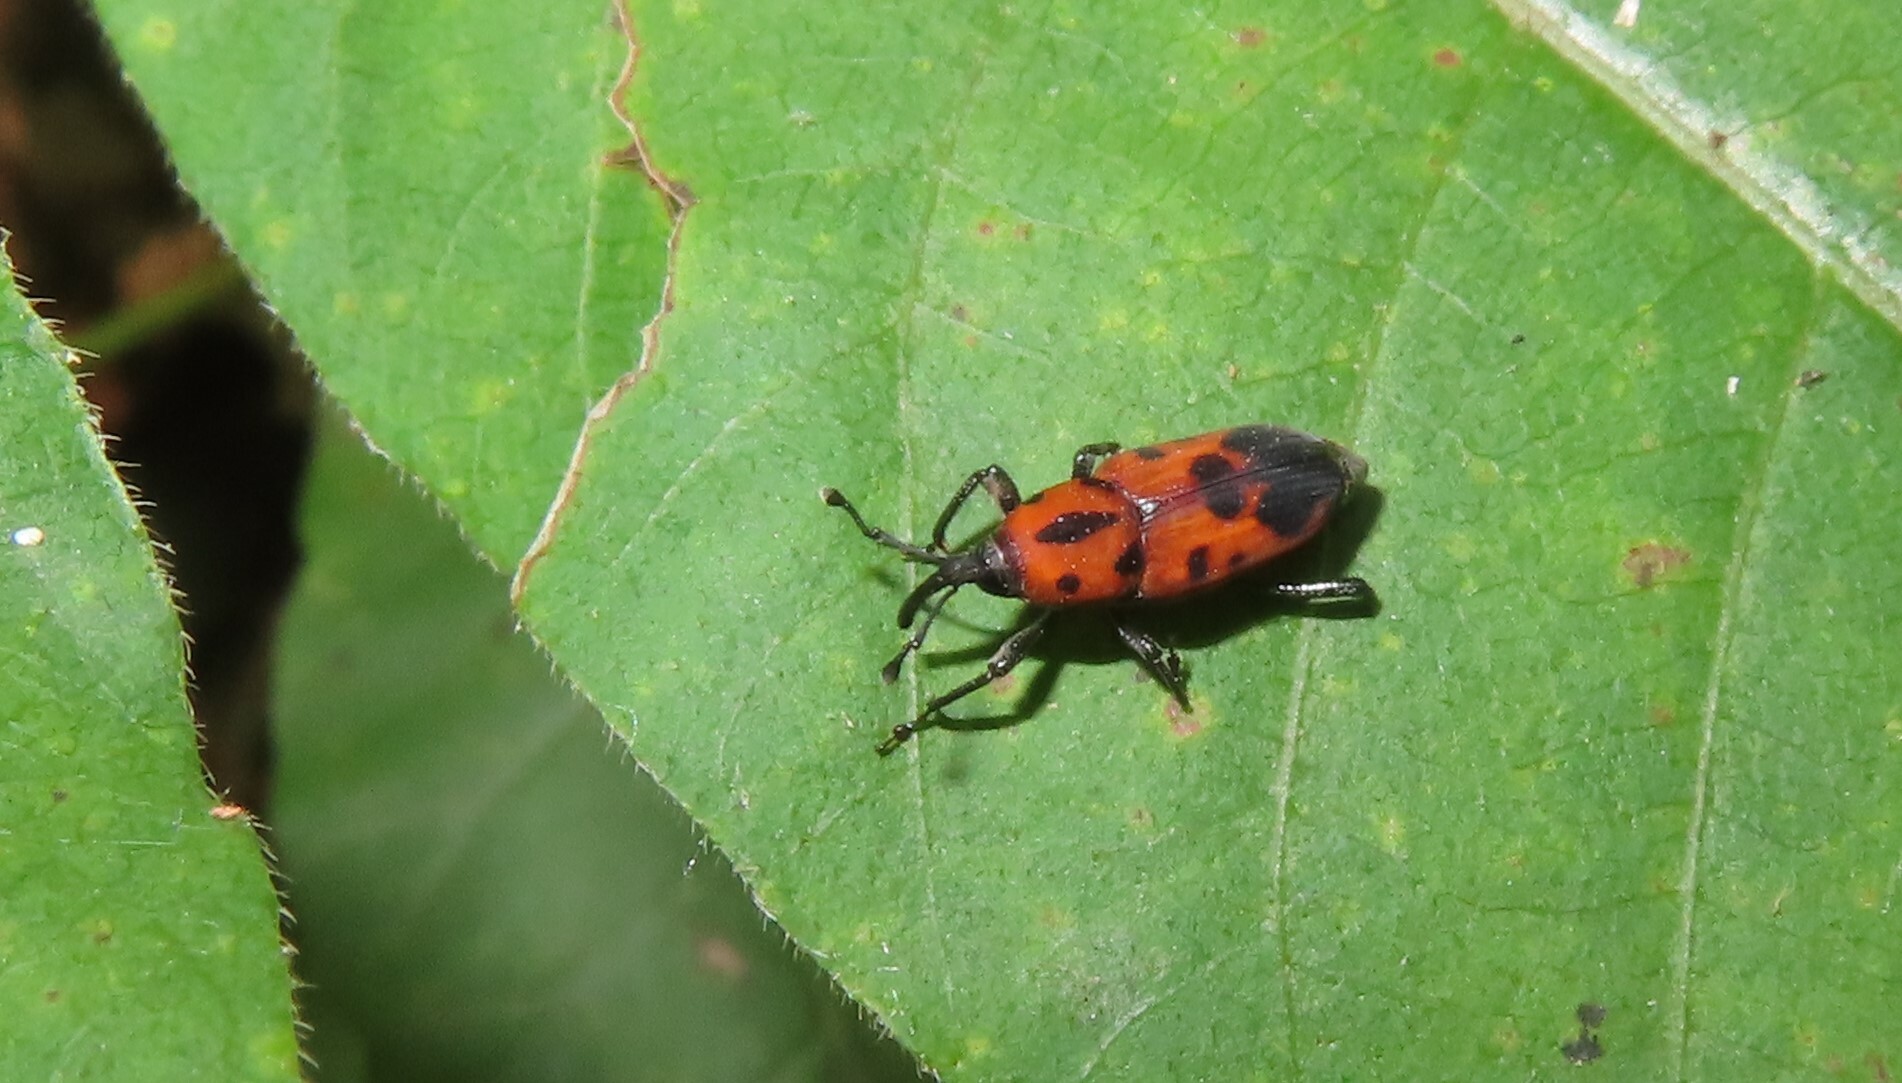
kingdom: Animalia
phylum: Arthropoda
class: Insecta
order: Coleoptera
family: Dryophthoridae
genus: Rhodobaenus
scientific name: Rhodobaenus quinquepunctatus
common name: Cocklebur weevil
